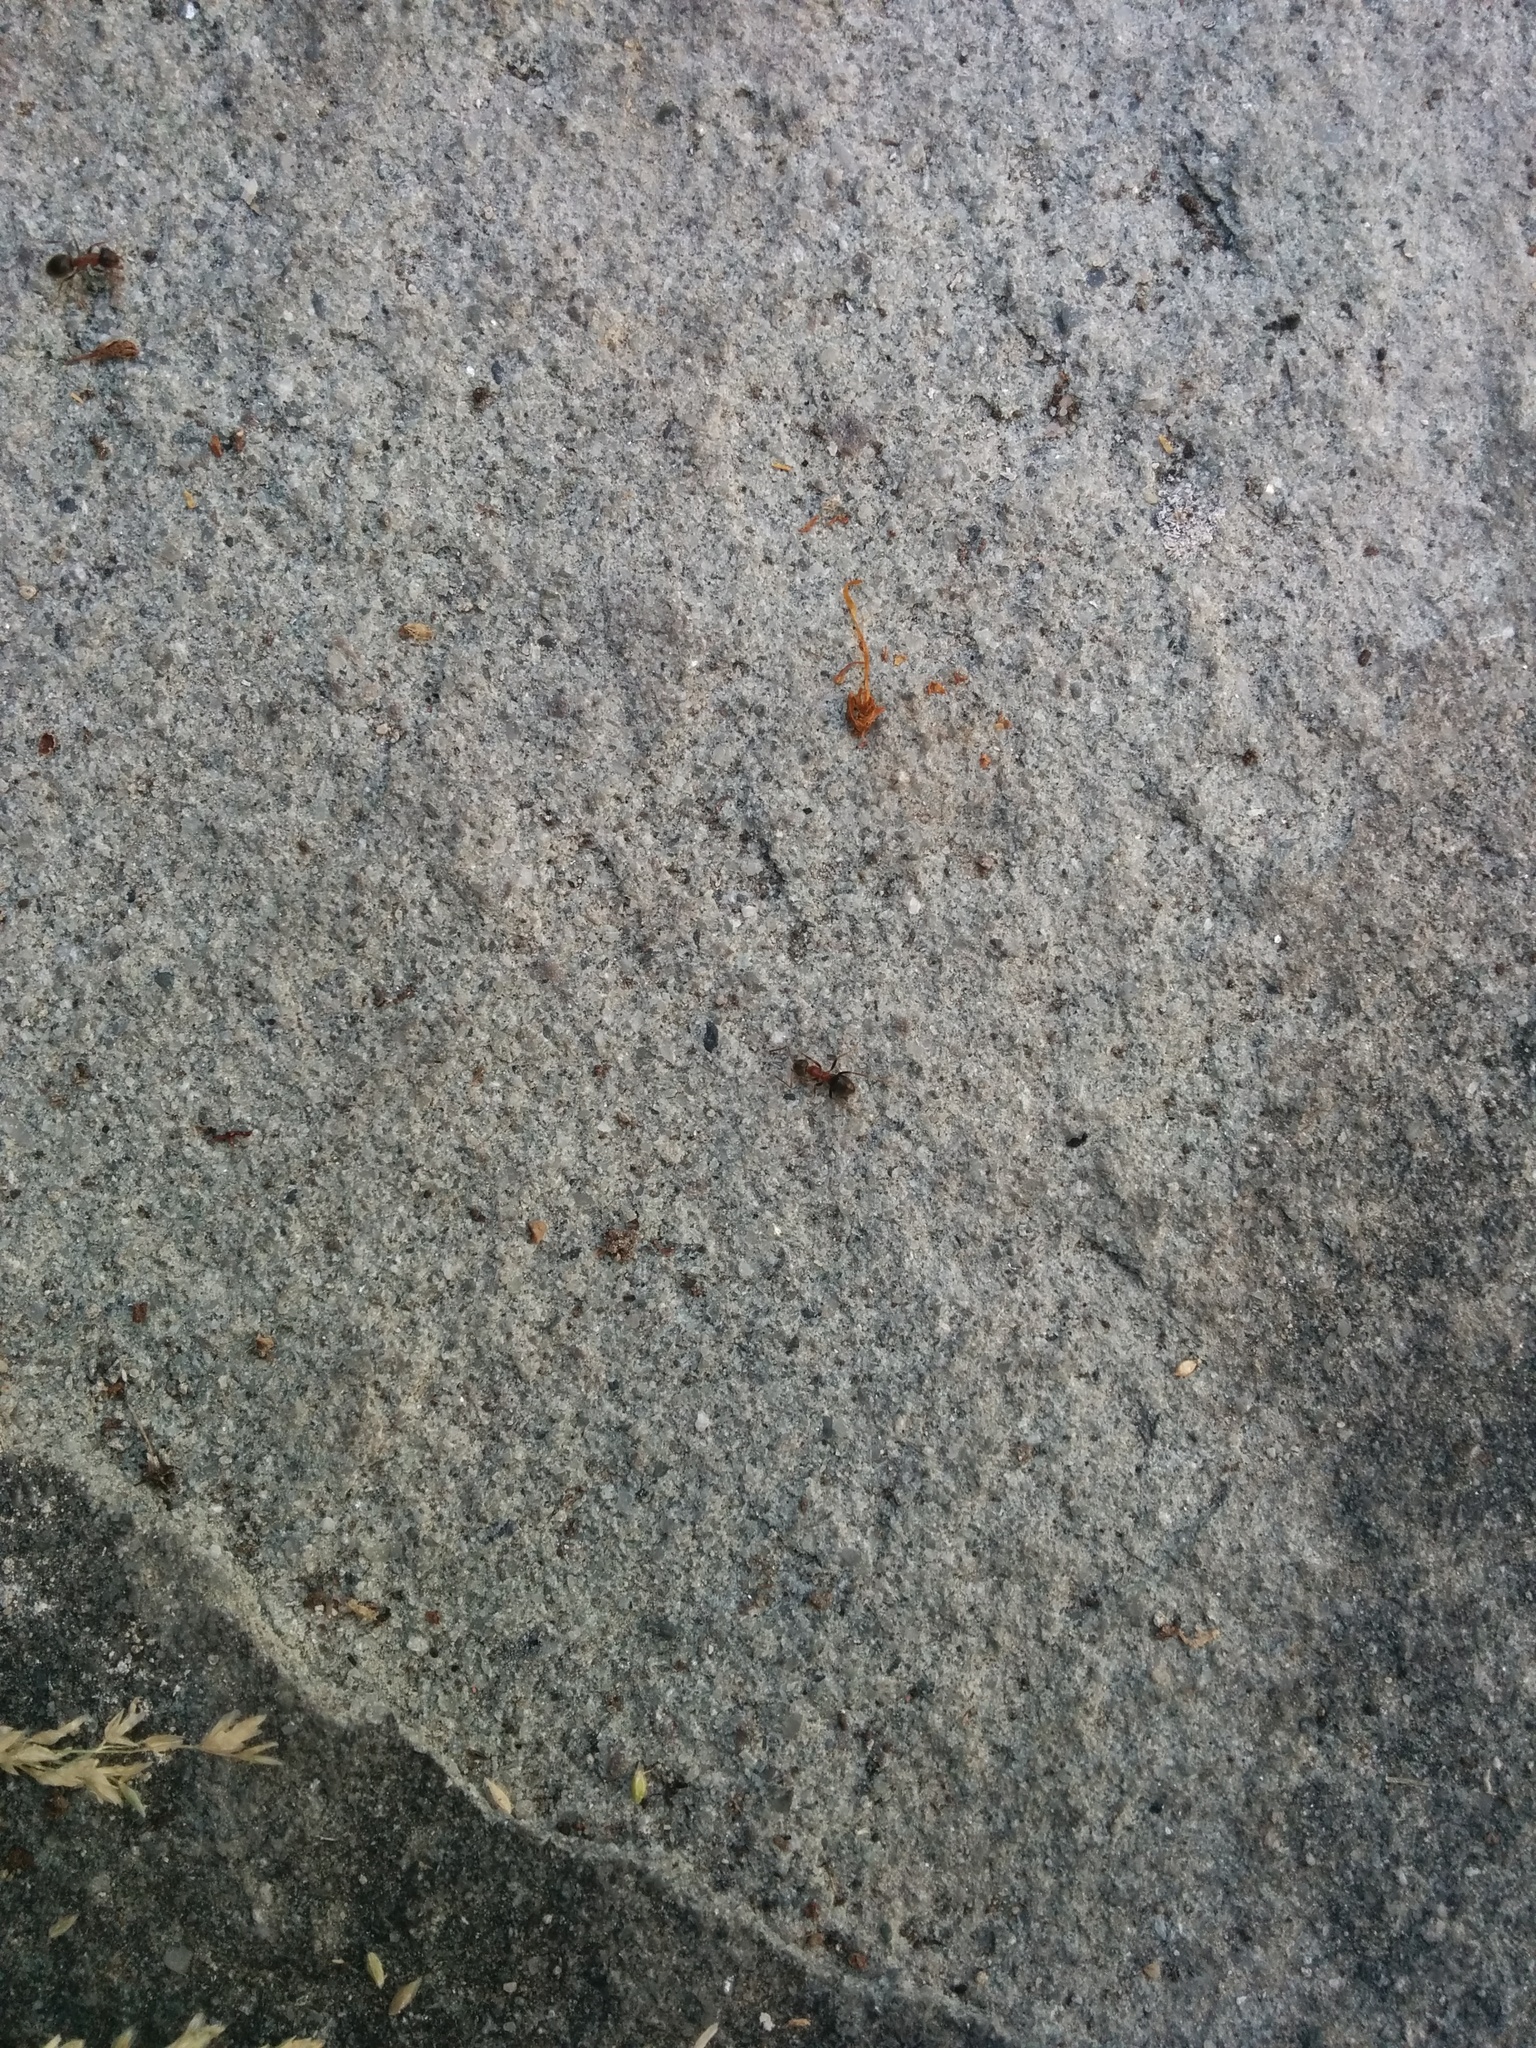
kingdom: Animalia
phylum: Arthropoda
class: Insecta
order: Hymenoptera
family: Formicidae
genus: Lasius
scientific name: Lasius emarginatus
